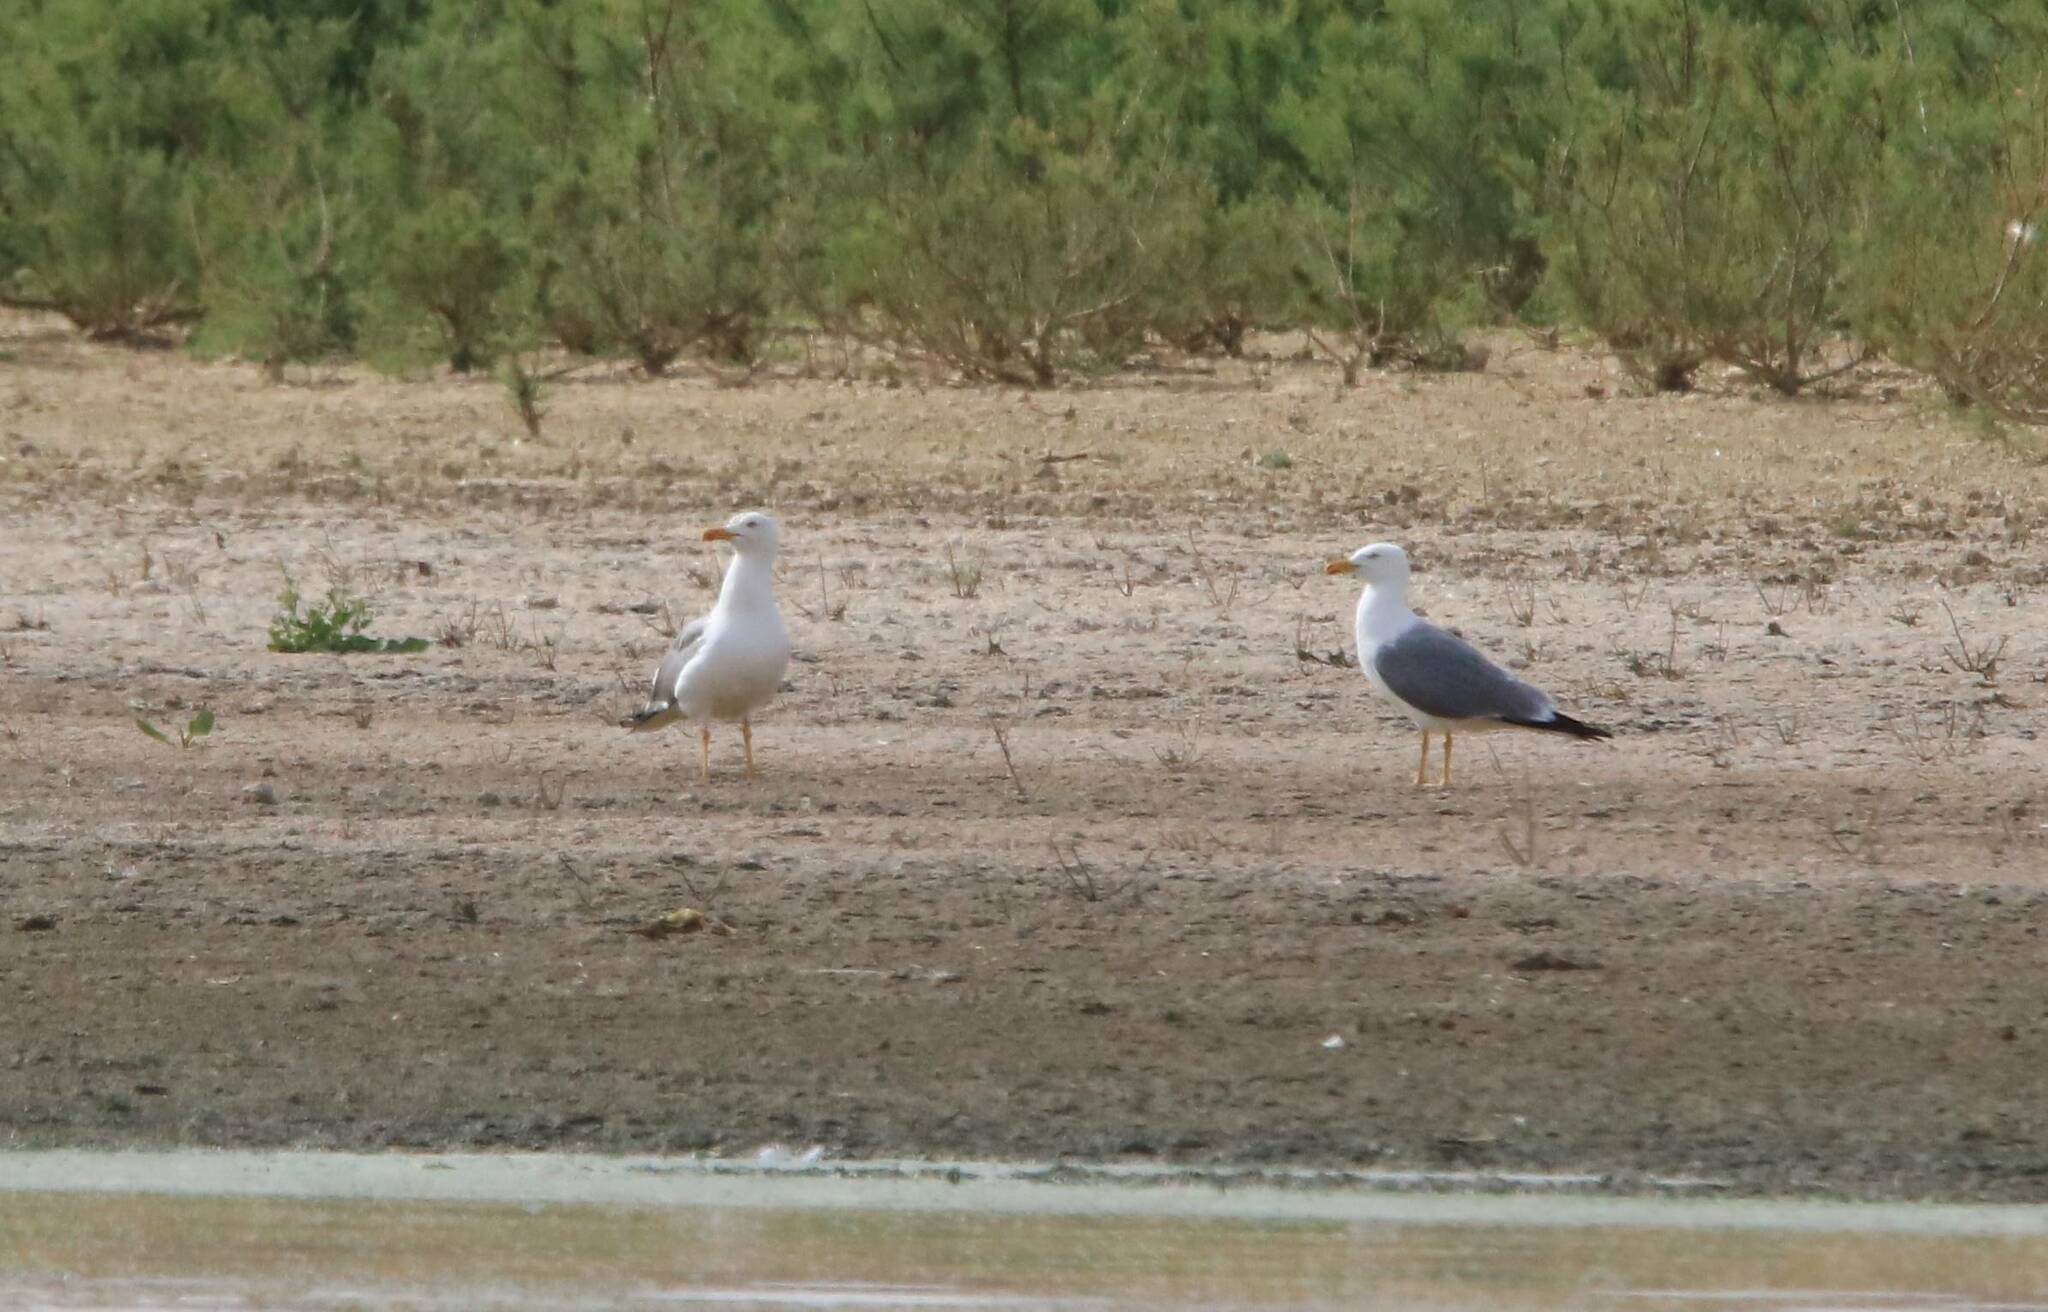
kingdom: Animalia
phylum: Chordata
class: Aves
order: Charadriiformes
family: Laridae
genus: Larus
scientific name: Larus michahellis
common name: Yellow-legged gull
